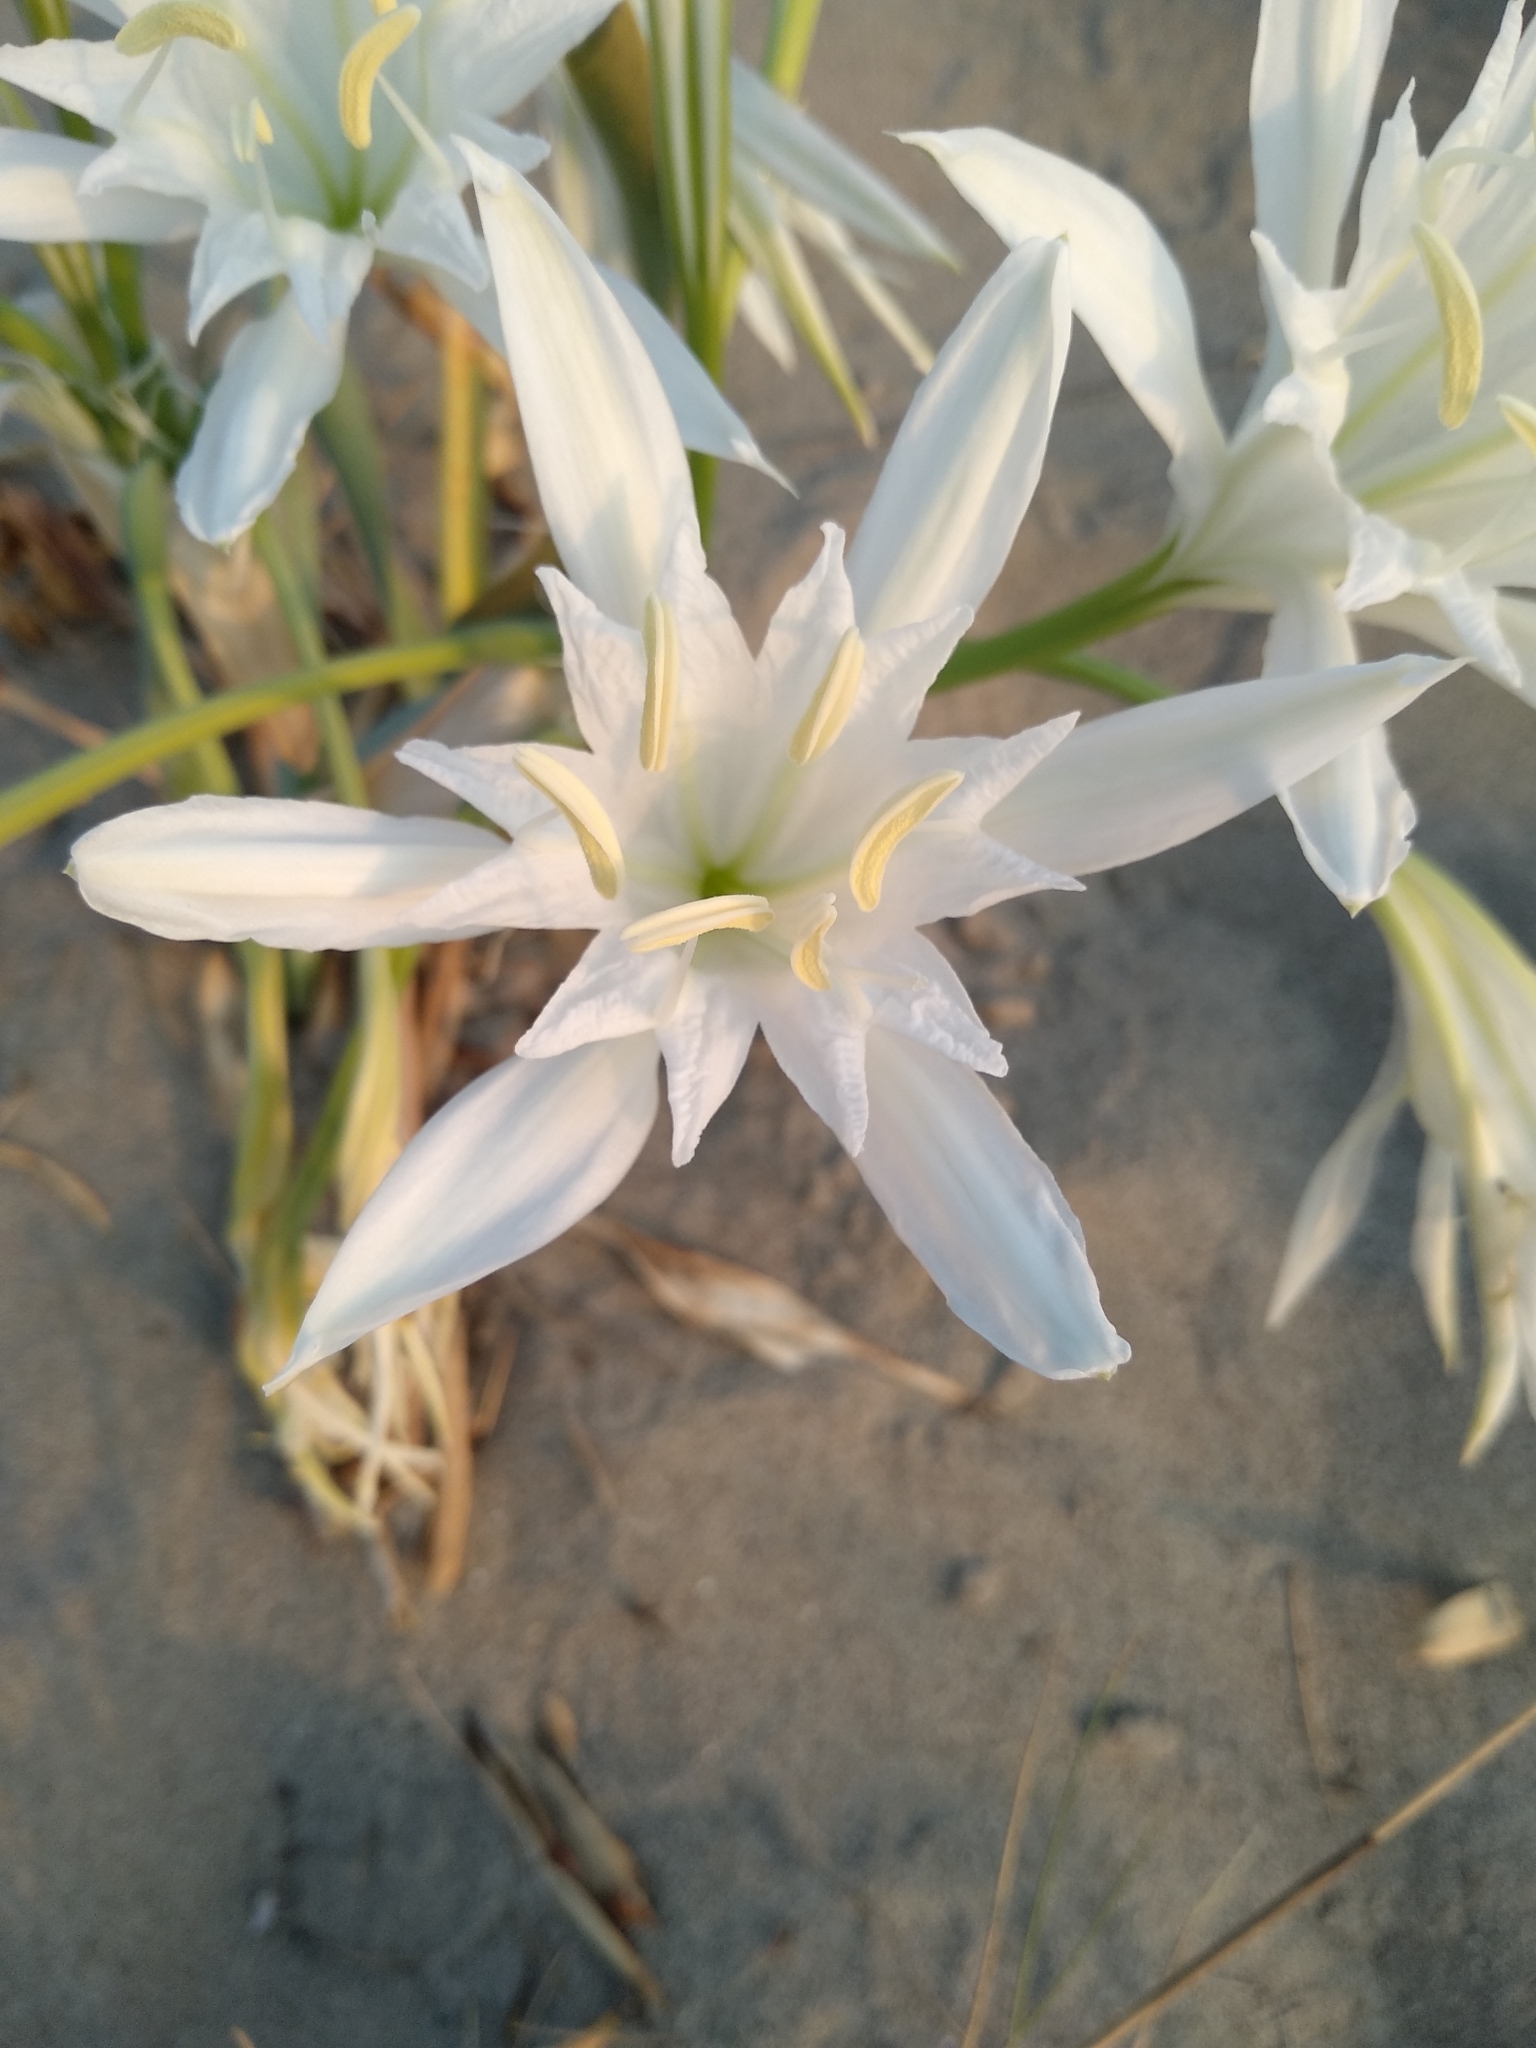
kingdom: Plantae
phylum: Tracheophyta
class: Liliopsida
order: Asparagales
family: Amaryllidaceae
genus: Pancratium
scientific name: Pancratium maritimum
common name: Sea-daffodil
